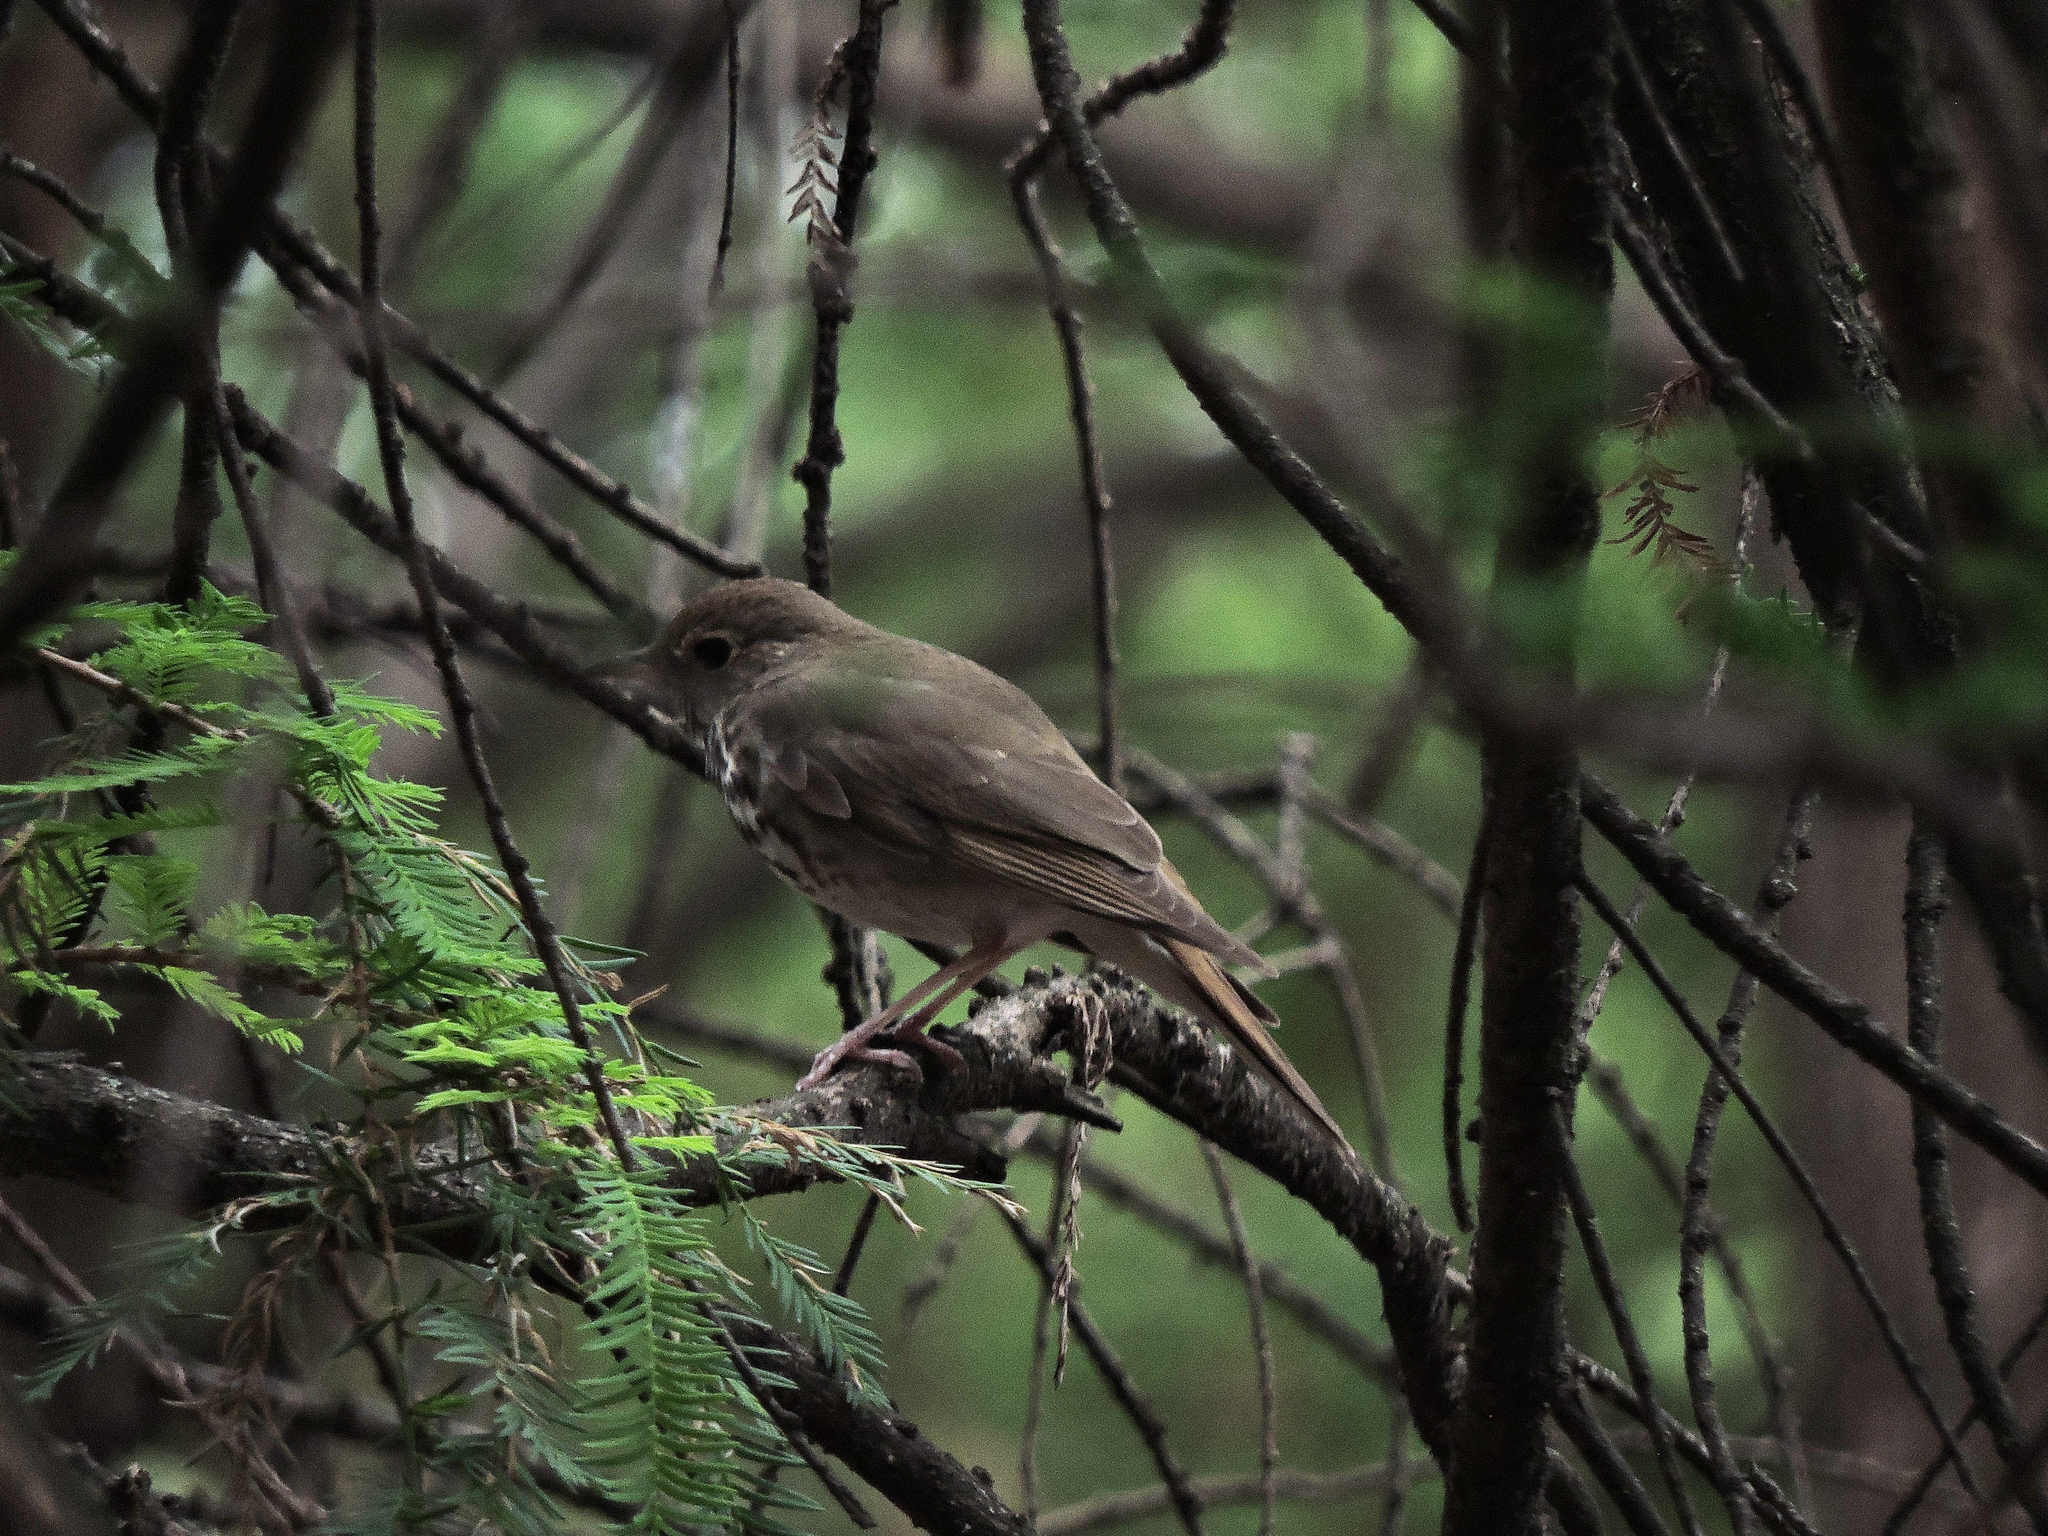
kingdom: Animalia
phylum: Chordata
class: Aves
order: Passeriformes
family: Turdidae
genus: Catharus
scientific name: Catharus guttatus
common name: Hermit thrush
